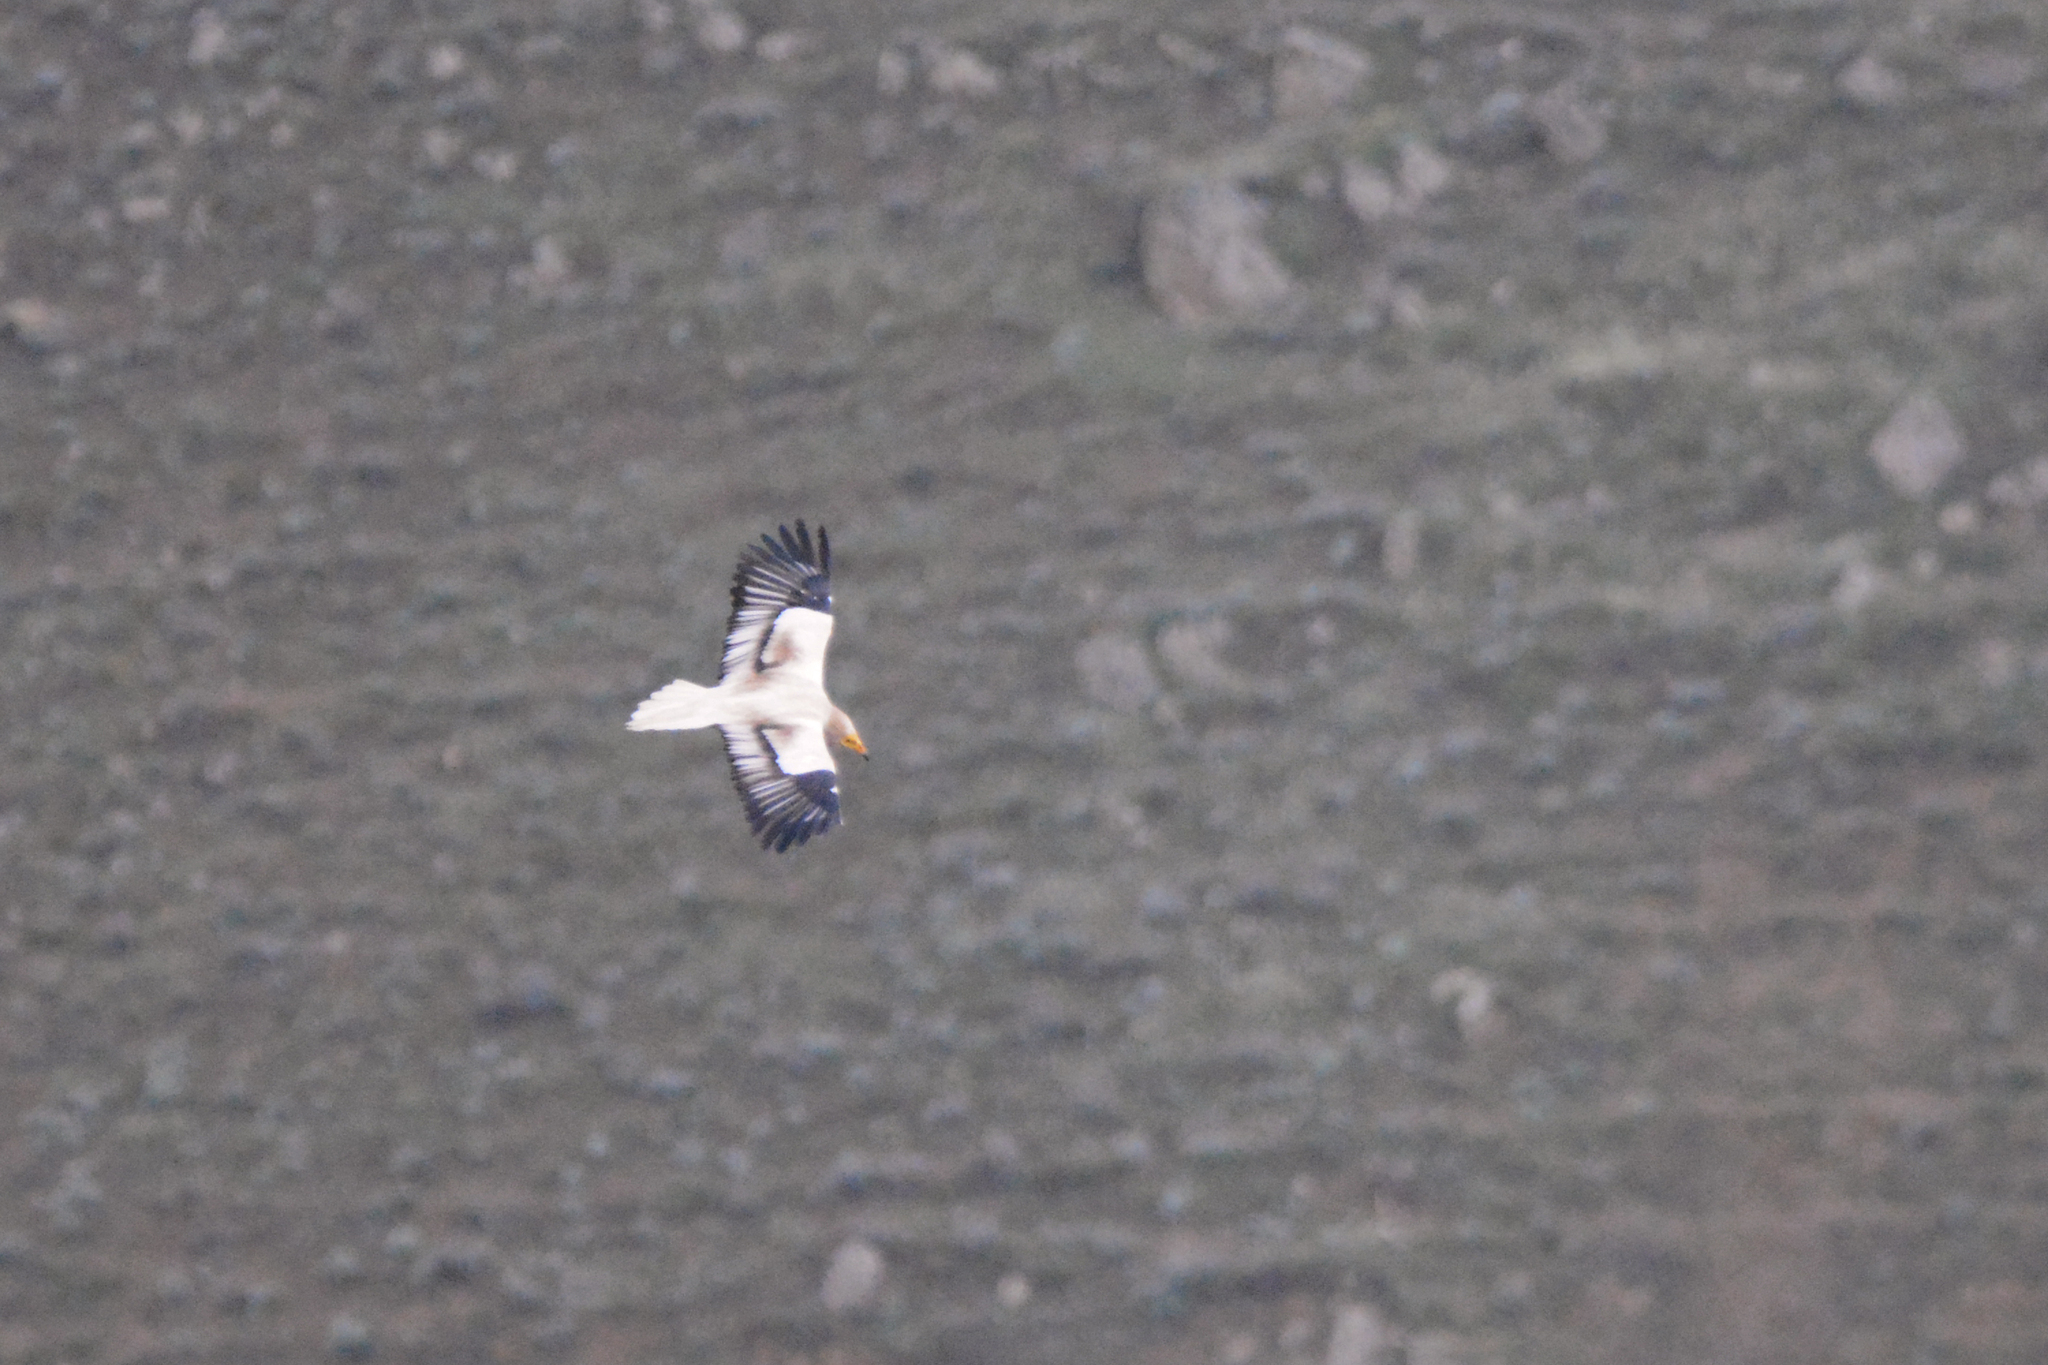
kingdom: Animalia
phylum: Chordata
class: Aves
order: Accipitriformes
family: Accipitridae
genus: Neophron
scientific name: Neophron percnopterus
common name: Egyptian vulture
